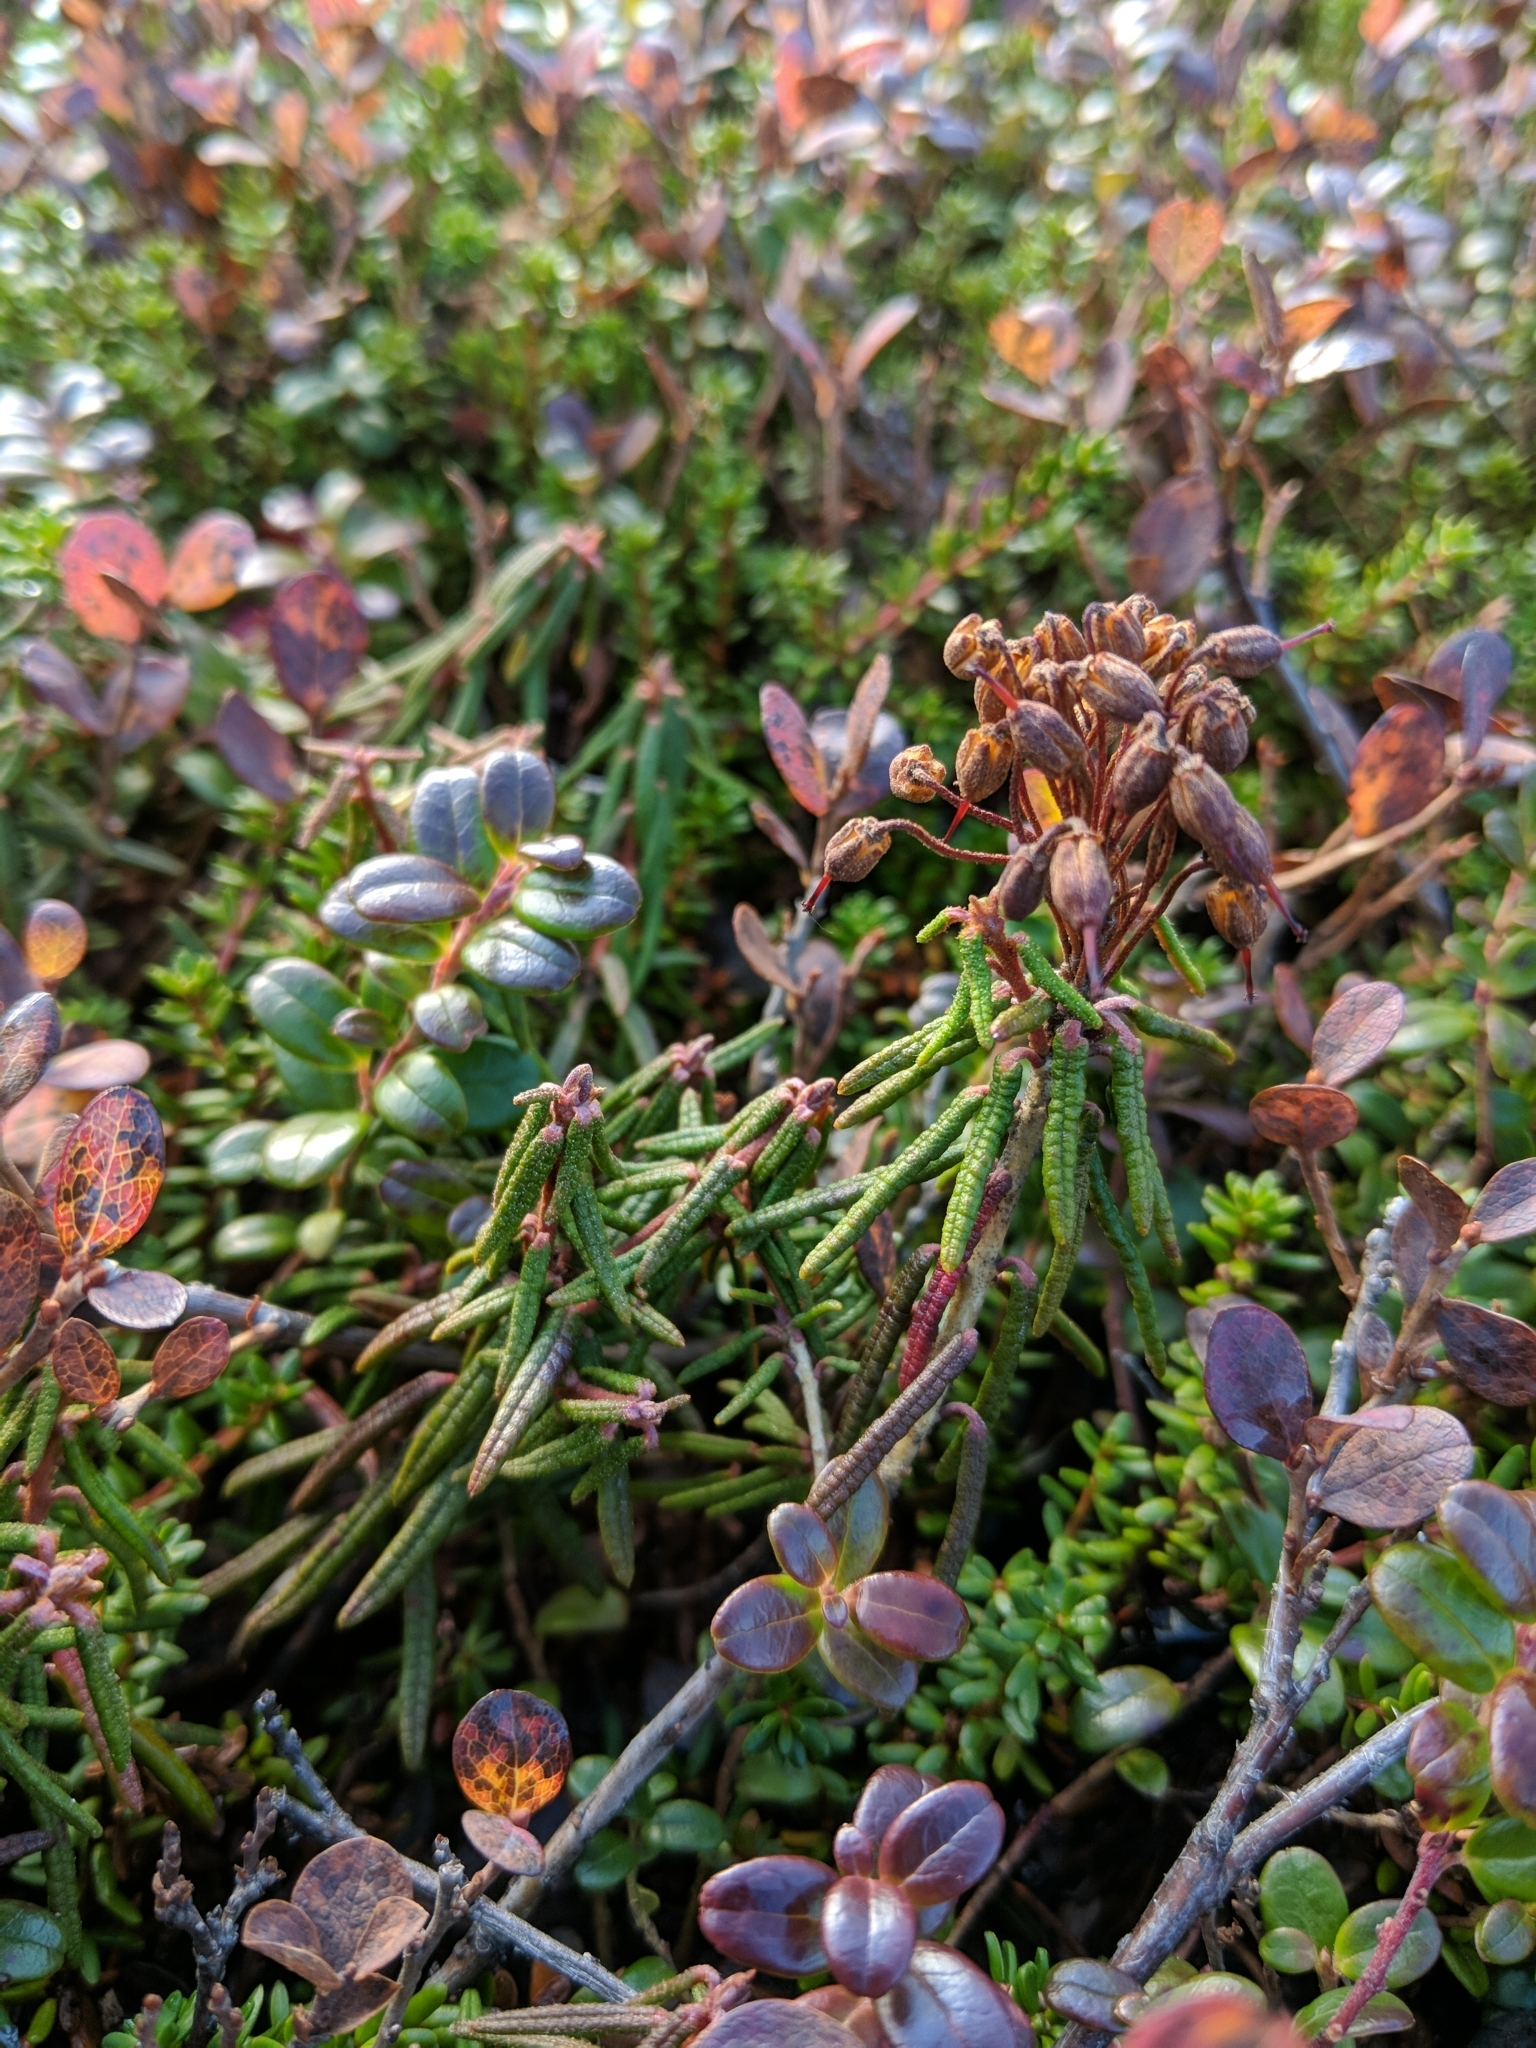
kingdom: Plantae
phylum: Tracheophyta
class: Magnoliopsida
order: Ericales
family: Ericaceae
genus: Rhododendron
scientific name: Rhododendron tomentosum
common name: Marsh labrador tea
